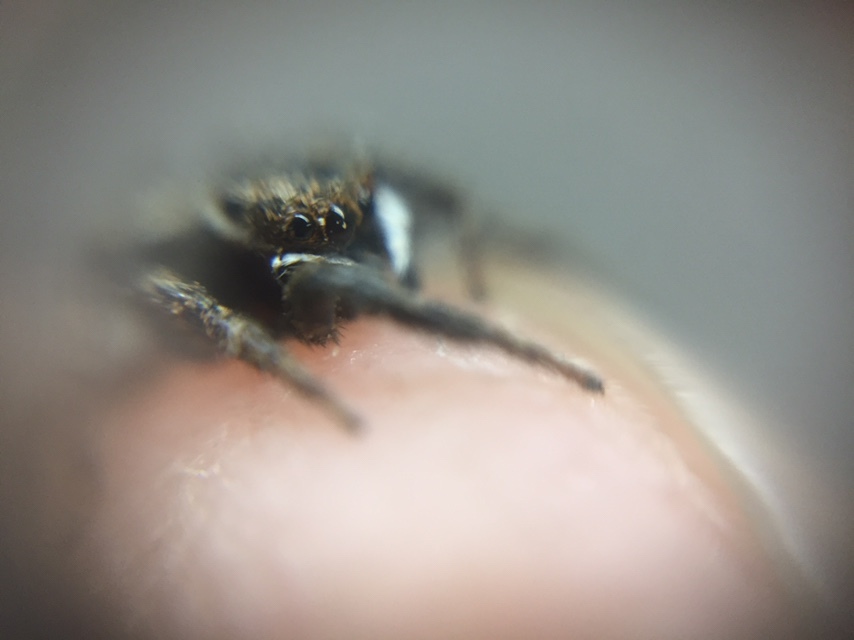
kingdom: Animalia
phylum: Arthropoda
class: Arachnida
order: Araneae
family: Salticidae
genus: Hasarius
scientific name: Hasarius adansoni
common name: Jumping spider
